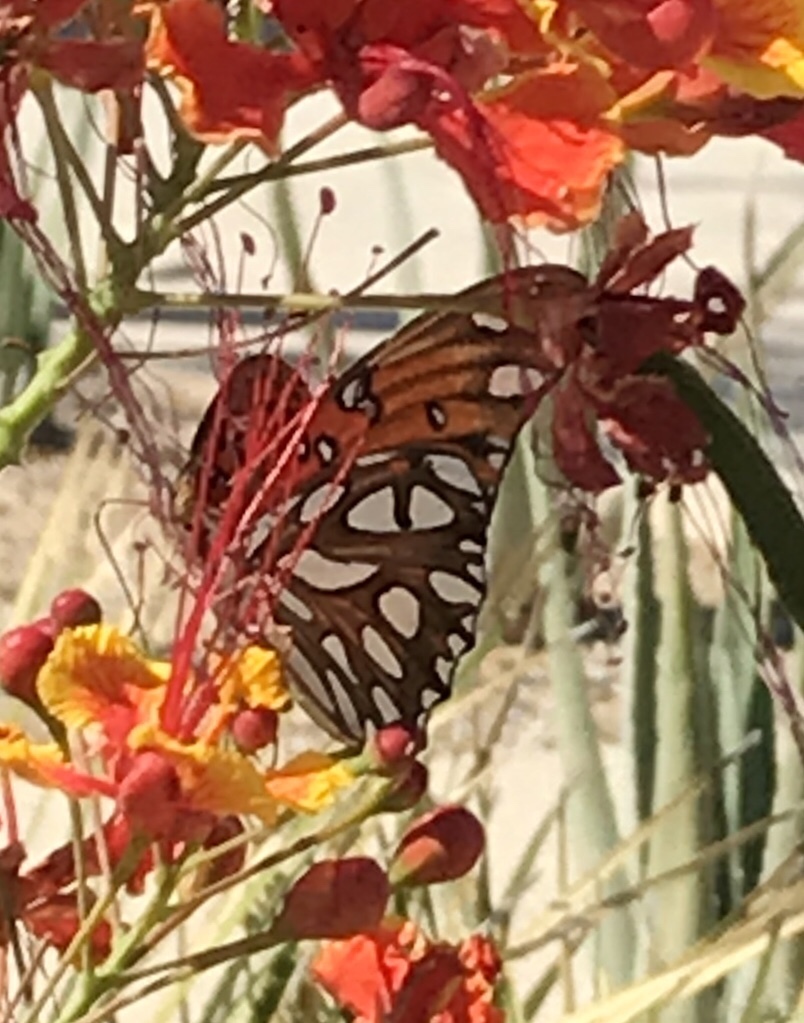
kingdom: Animalia
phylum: Arthropoda
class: Insecta
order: Lepidoptera
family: Nymphalidae
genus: Dione
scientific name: Dione vanillae
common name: Gulf fritillary
